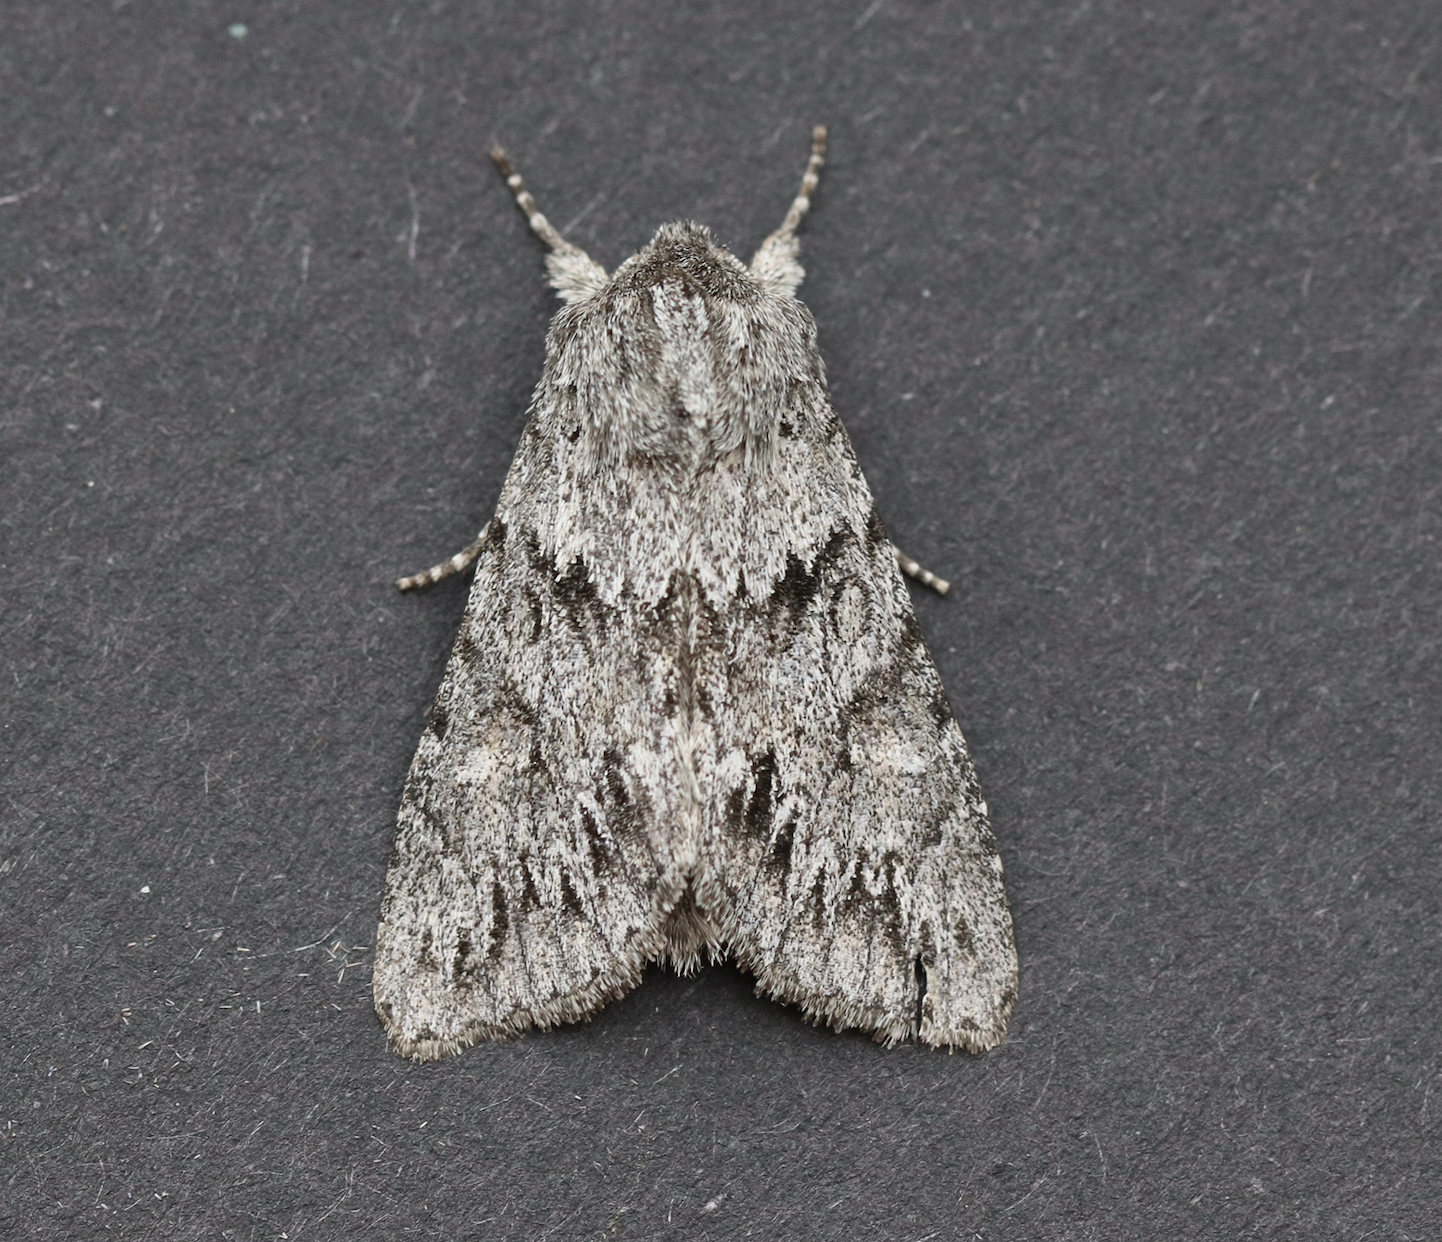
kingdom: Animalia
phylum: Arthropoda
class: Insecta
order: Lepidoptera
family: Noctuidae
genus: Andropolia
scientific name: Andropolia contacta
